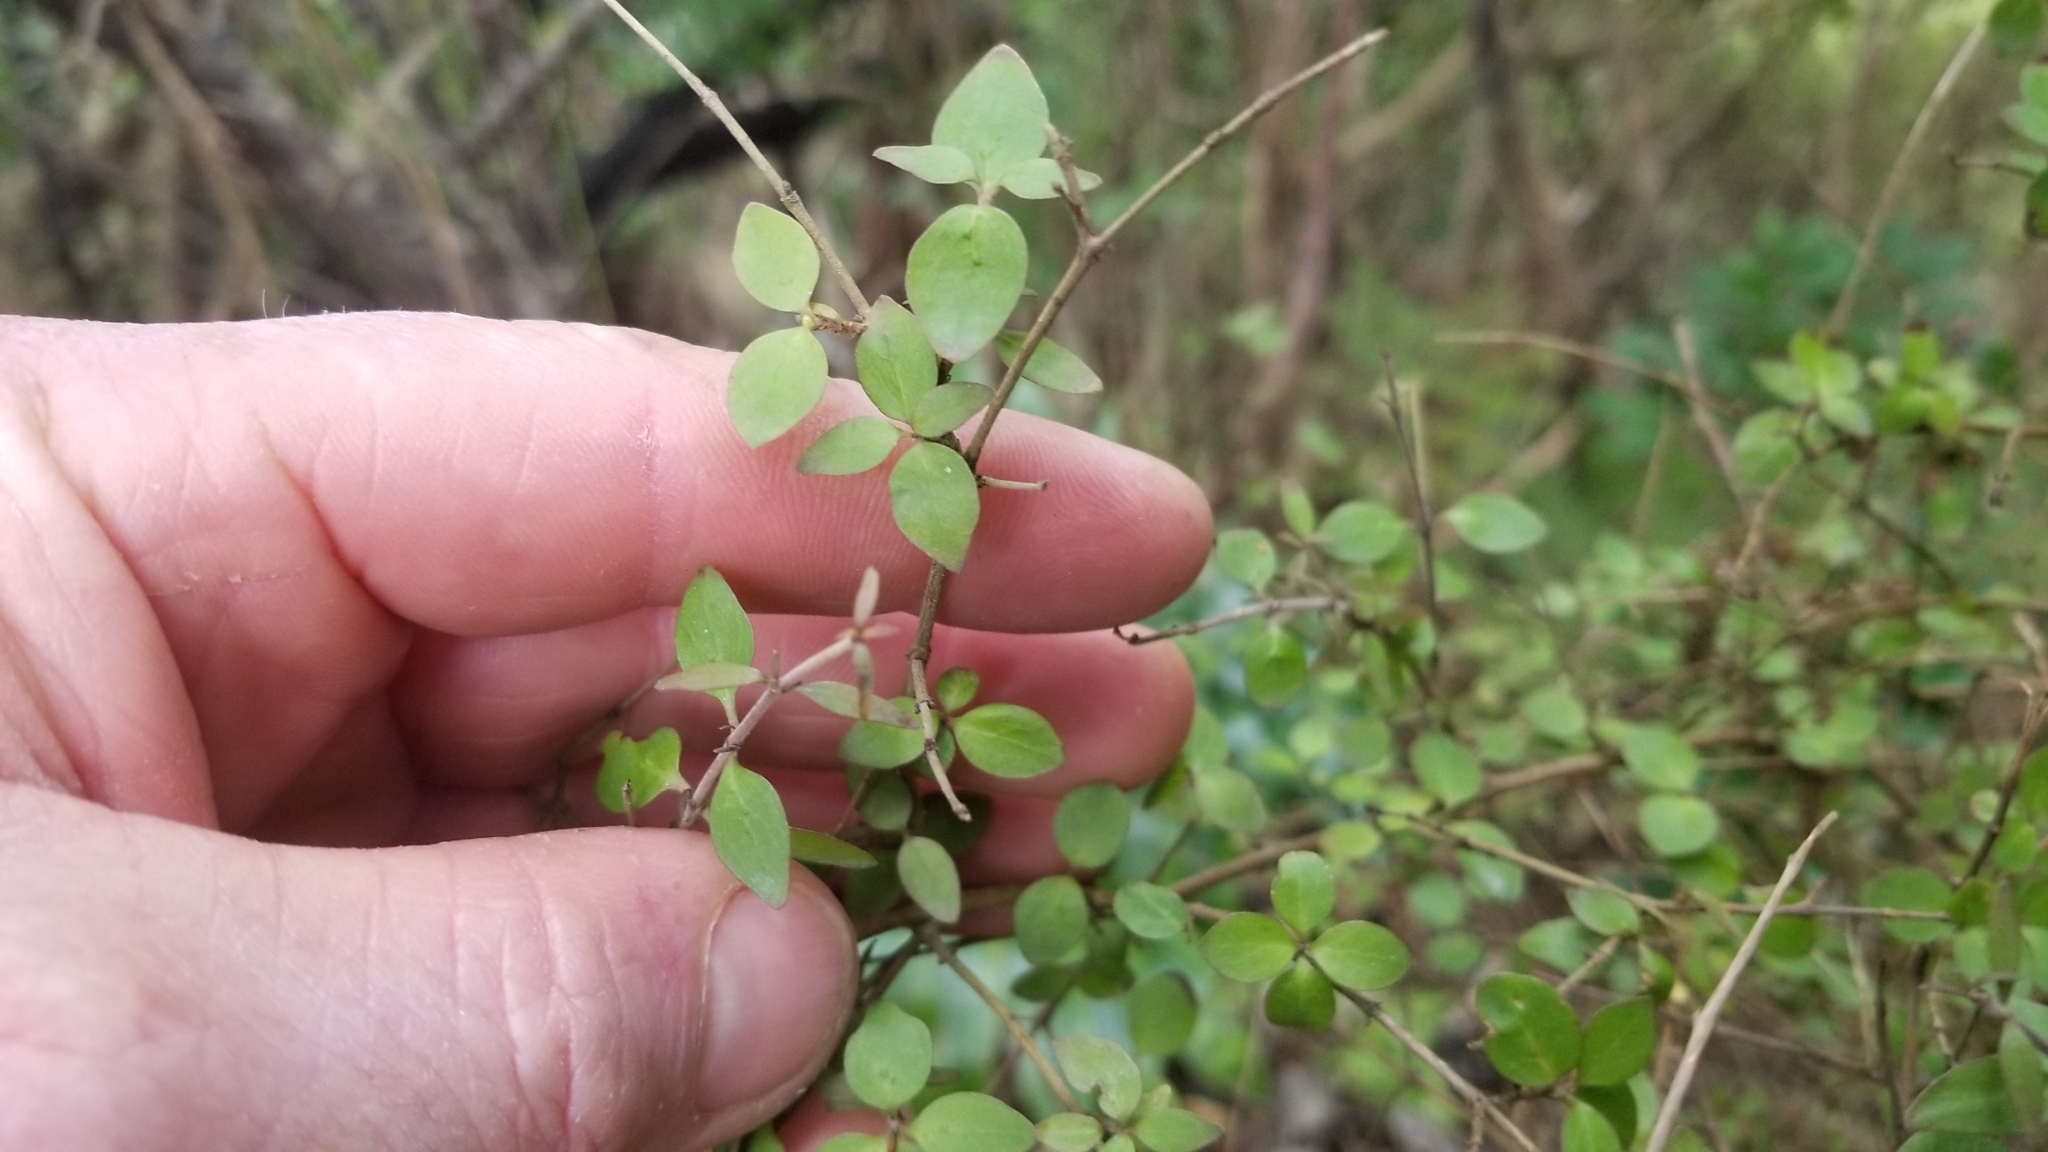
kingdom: Plantae
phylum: Tracheophyta
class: Magnoliopsida
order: Gentianales
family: Rubiaceae
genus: Coprosma
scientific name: Coprosma rhamnoides
